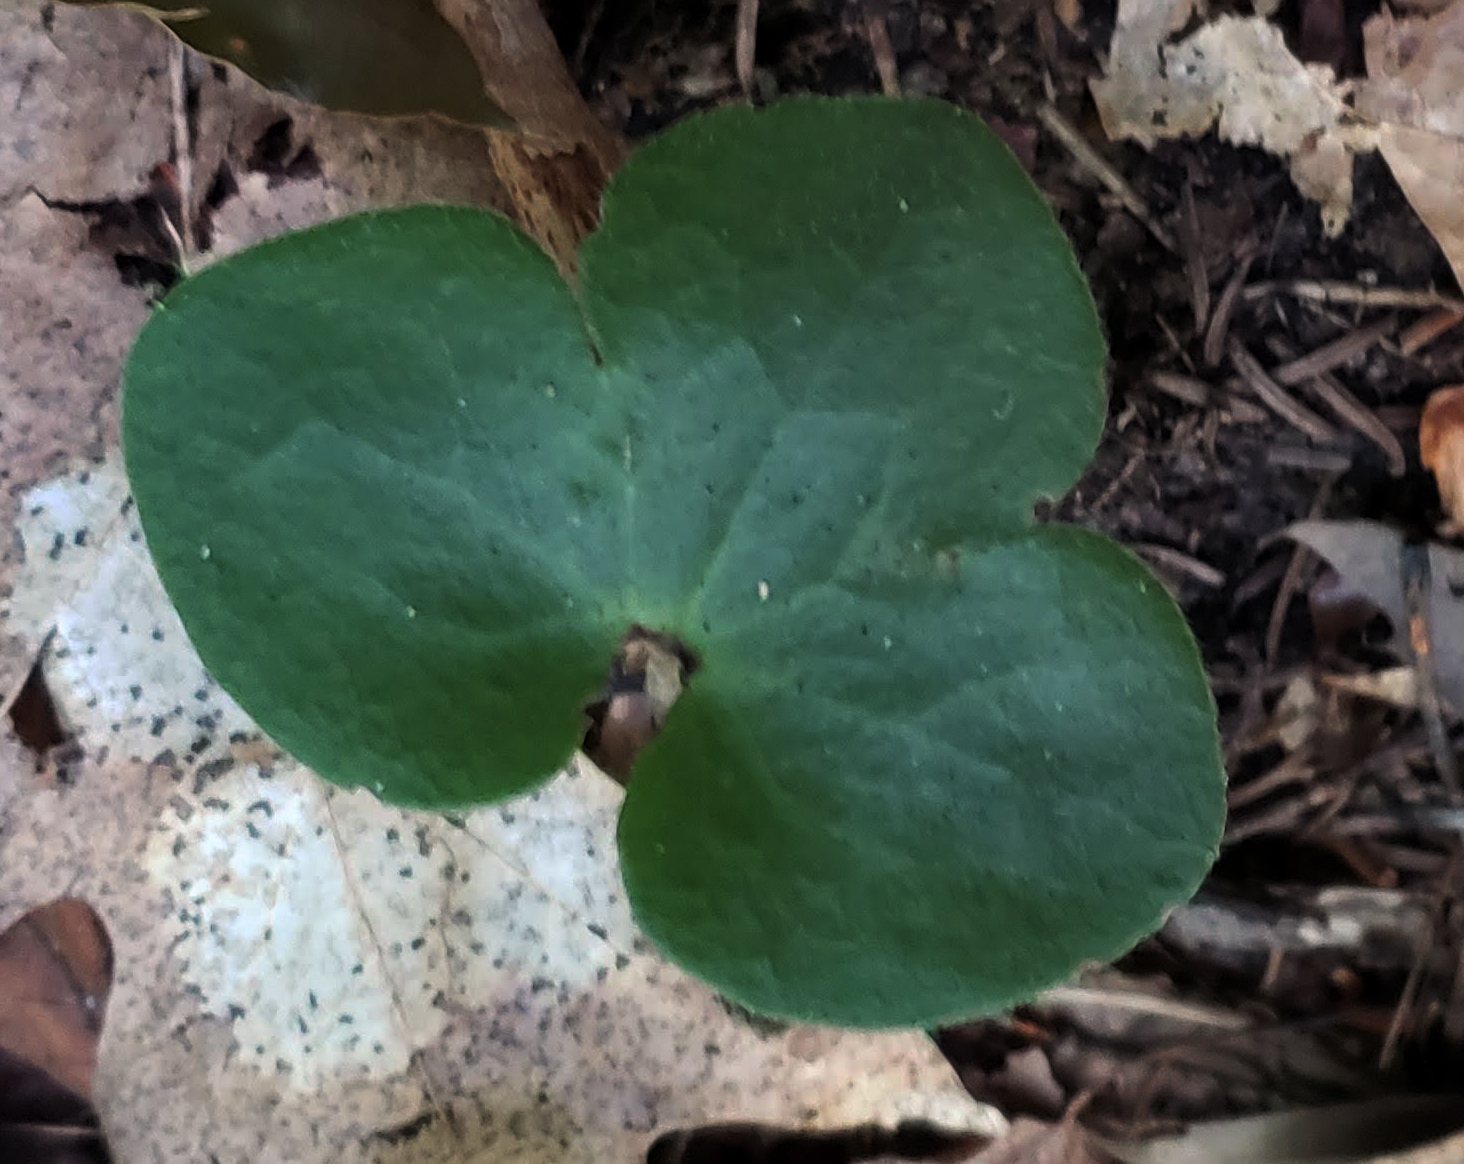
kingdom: Plantae
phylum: Tracheophyta
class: Magnoliopsida
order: Ranunculales
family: Ranunculaceae
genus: Hepatica
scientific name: Hepatica americana
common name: American hepatica
